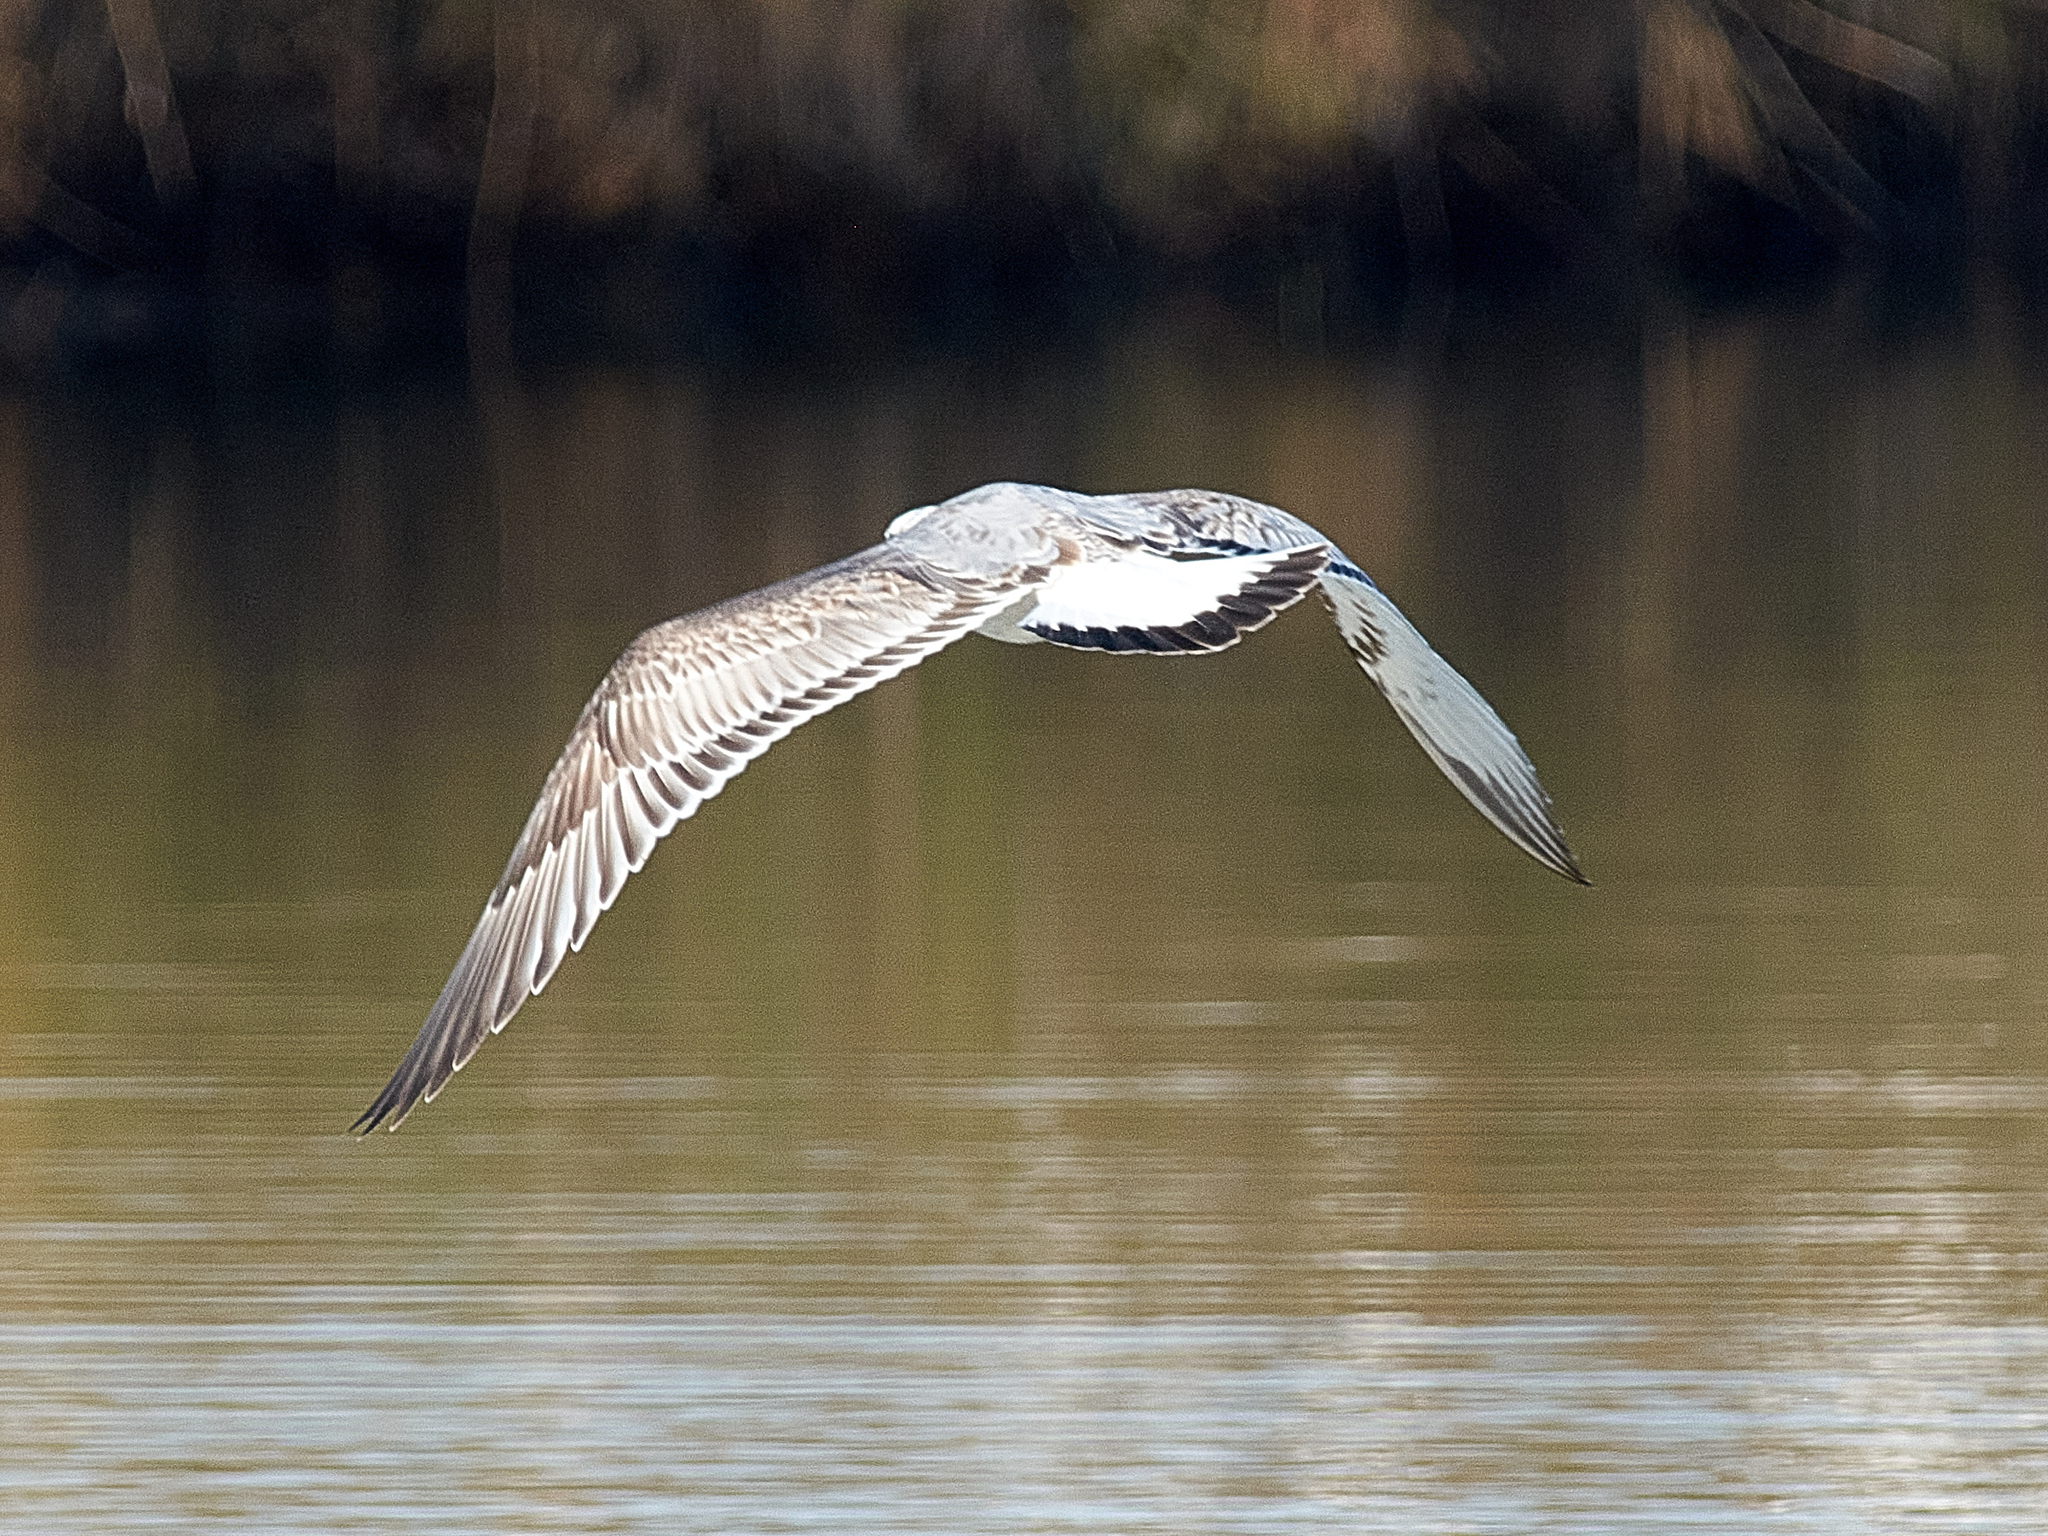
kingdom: Animalia
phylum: Chordata
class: Aves
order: Charadriiformes
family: Laridae
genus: Ichthyaetus
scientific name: Ichthyaetus ichthyaetus
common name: Pallas's gull
